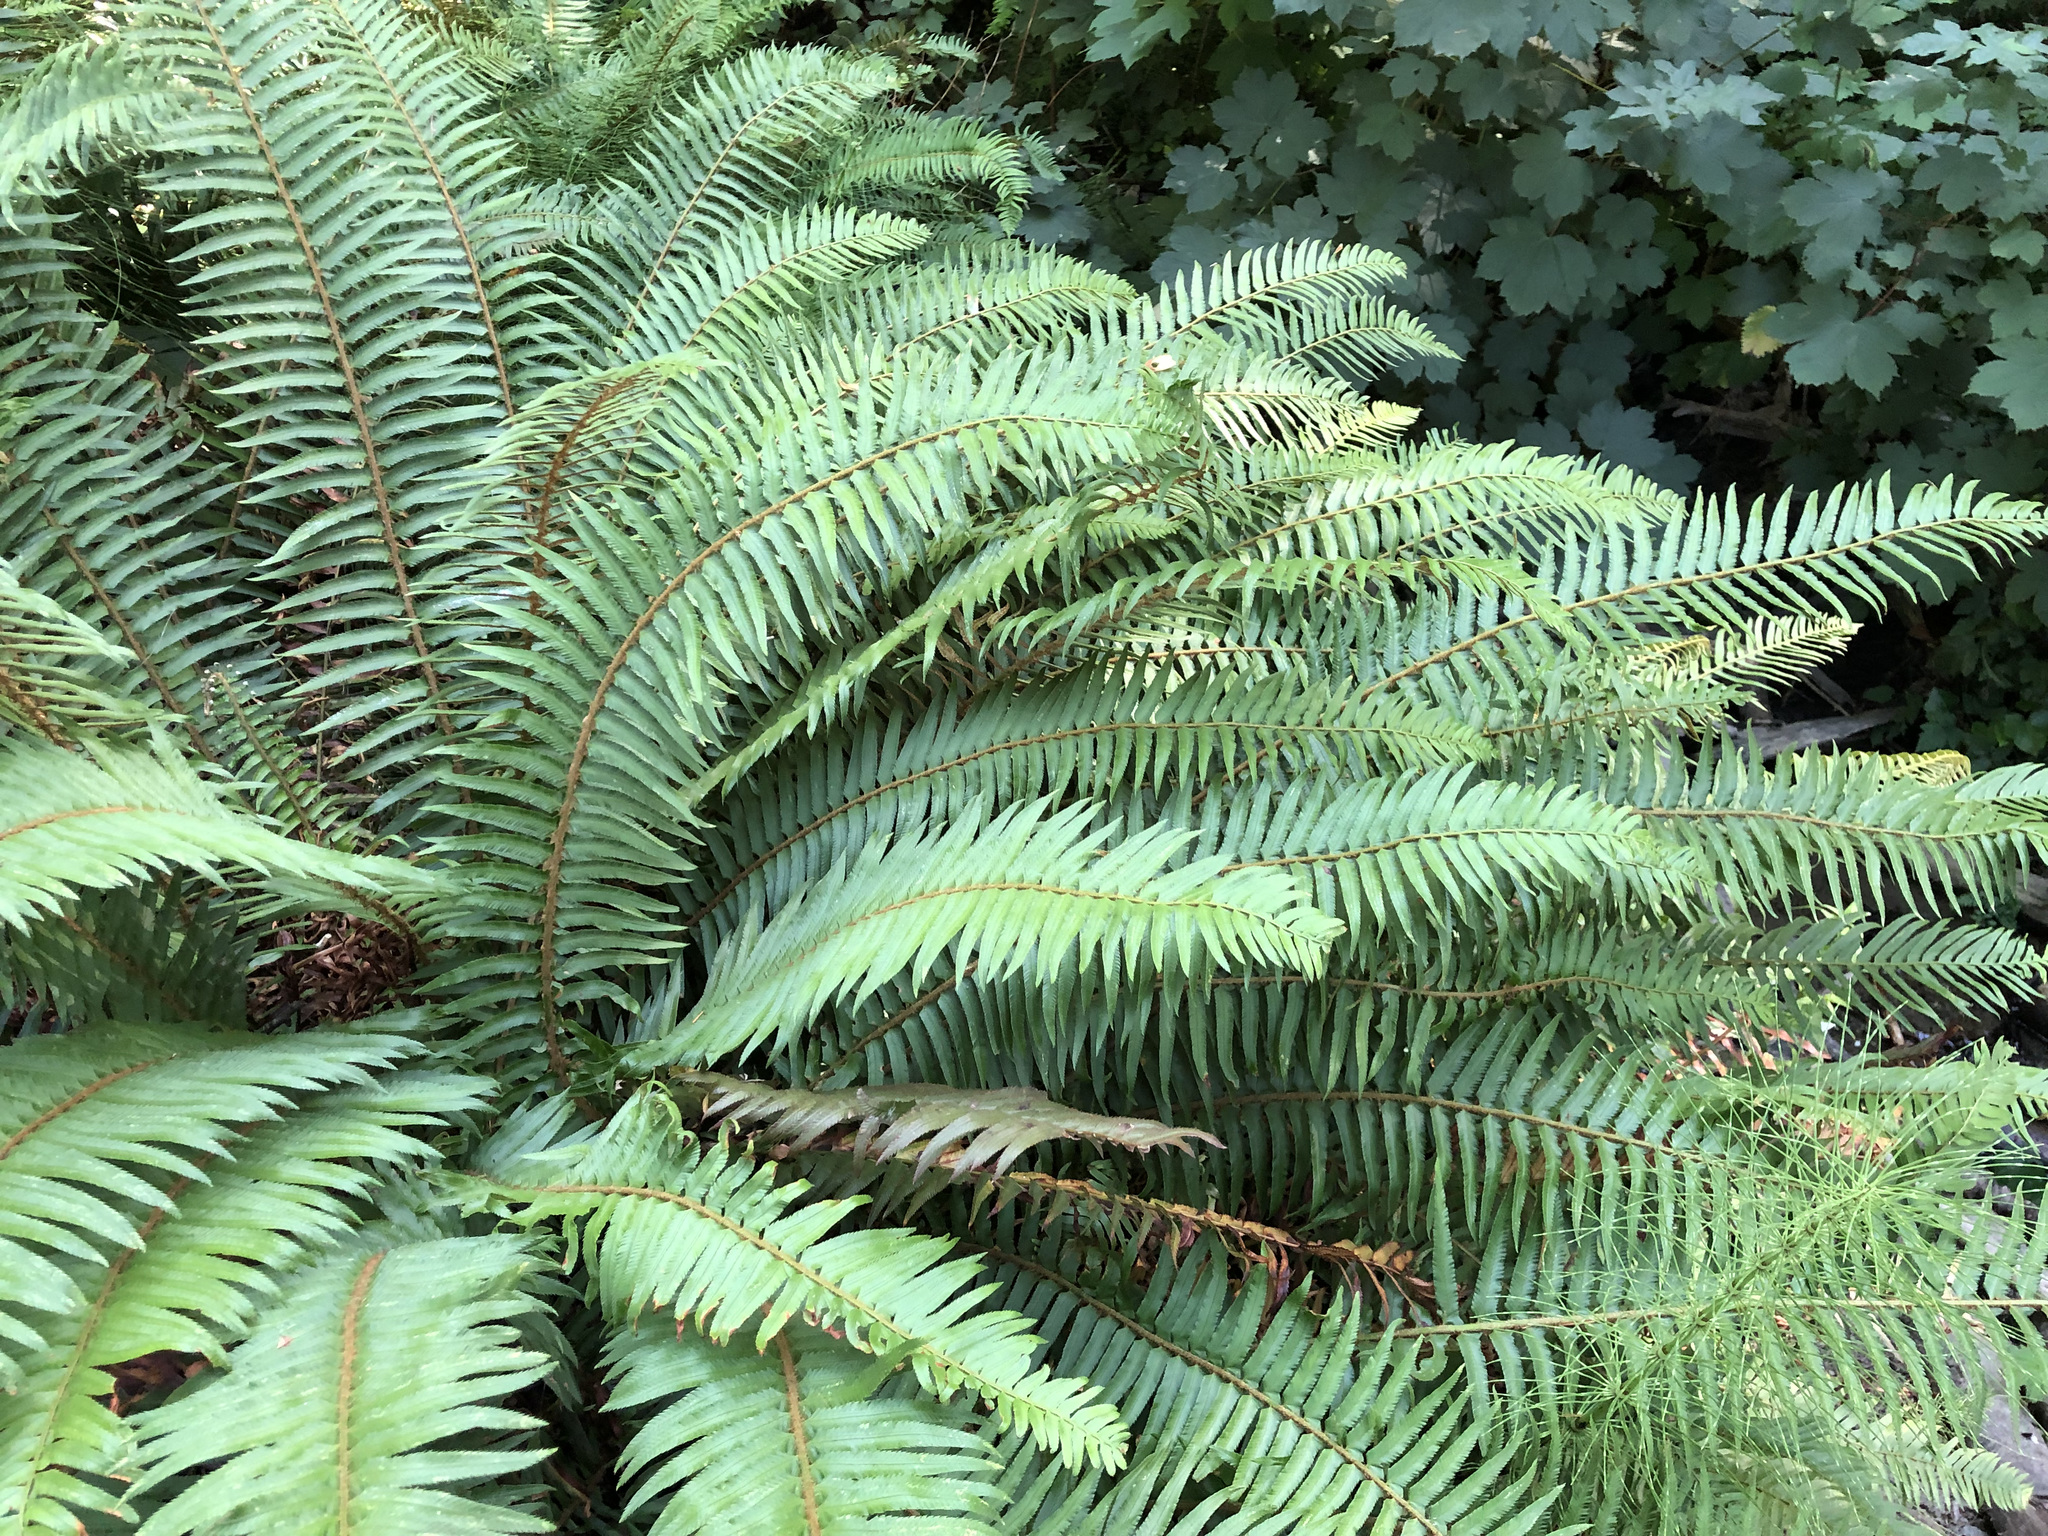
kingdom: Plantae
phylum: Tracheophyta
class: Polypodiopsida
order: Polypodiales
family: Dryopteridaceae
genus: Polystichum
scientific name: Polystichum munitum
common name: Western sword-fern
